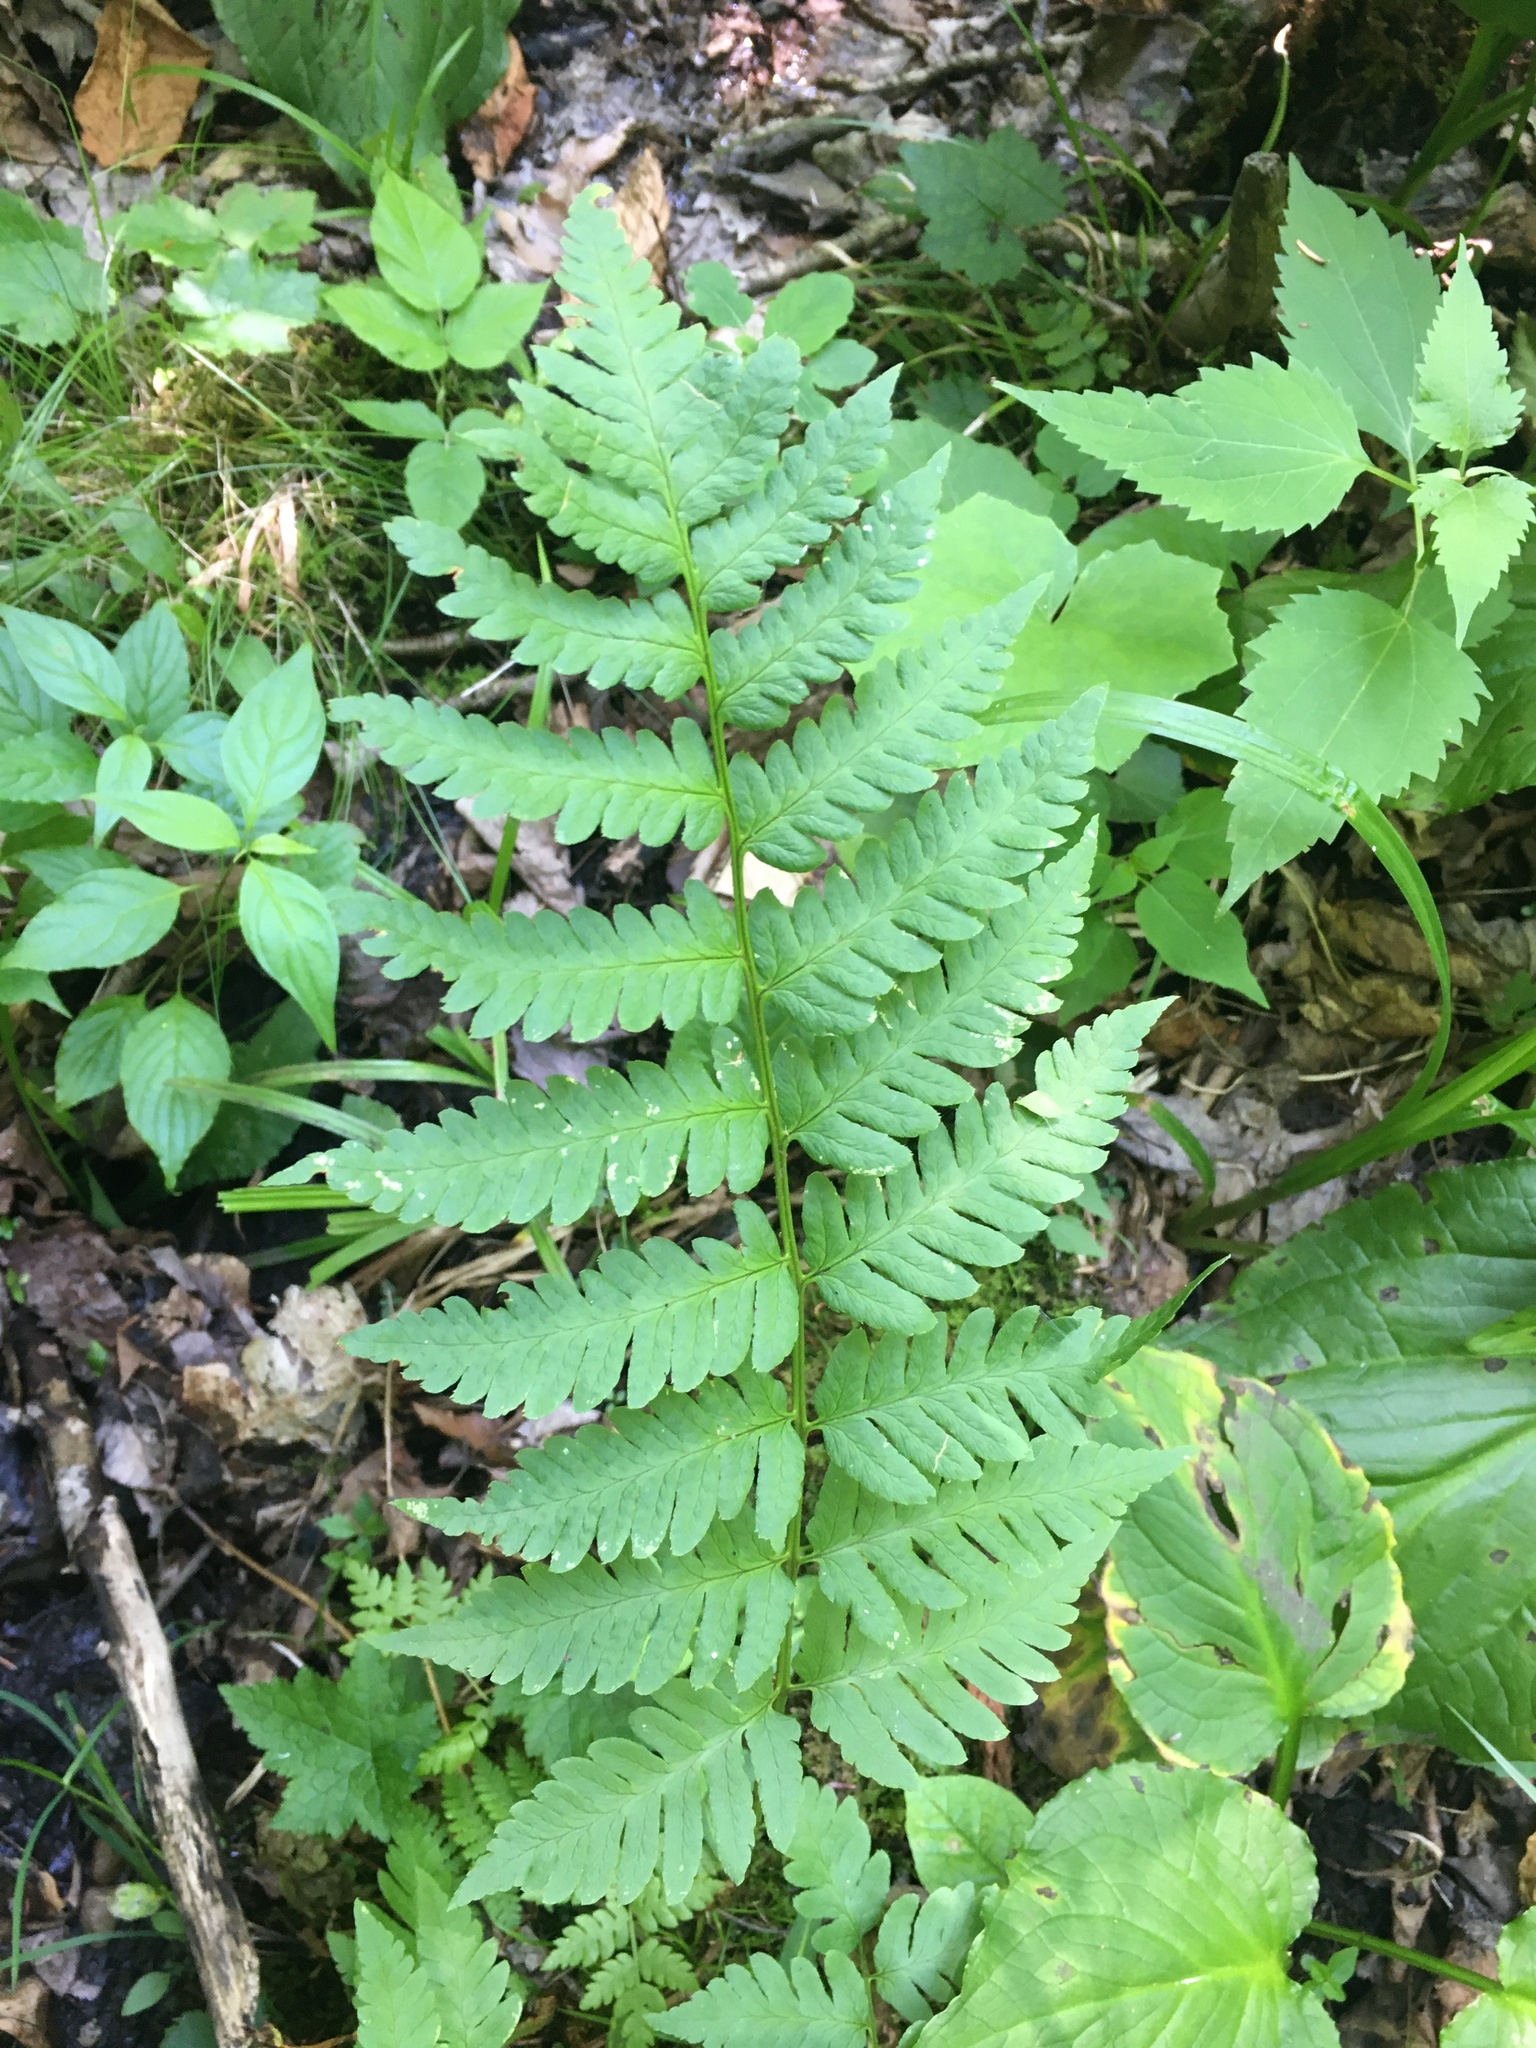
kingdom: Plantae
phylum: Tracheophyta
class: Polypodiopsida
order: Polypodiales
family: Dryopteridaceae
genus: Dryopteris
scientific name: Dryopteris clintoniana
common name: Clinton's wood fern
